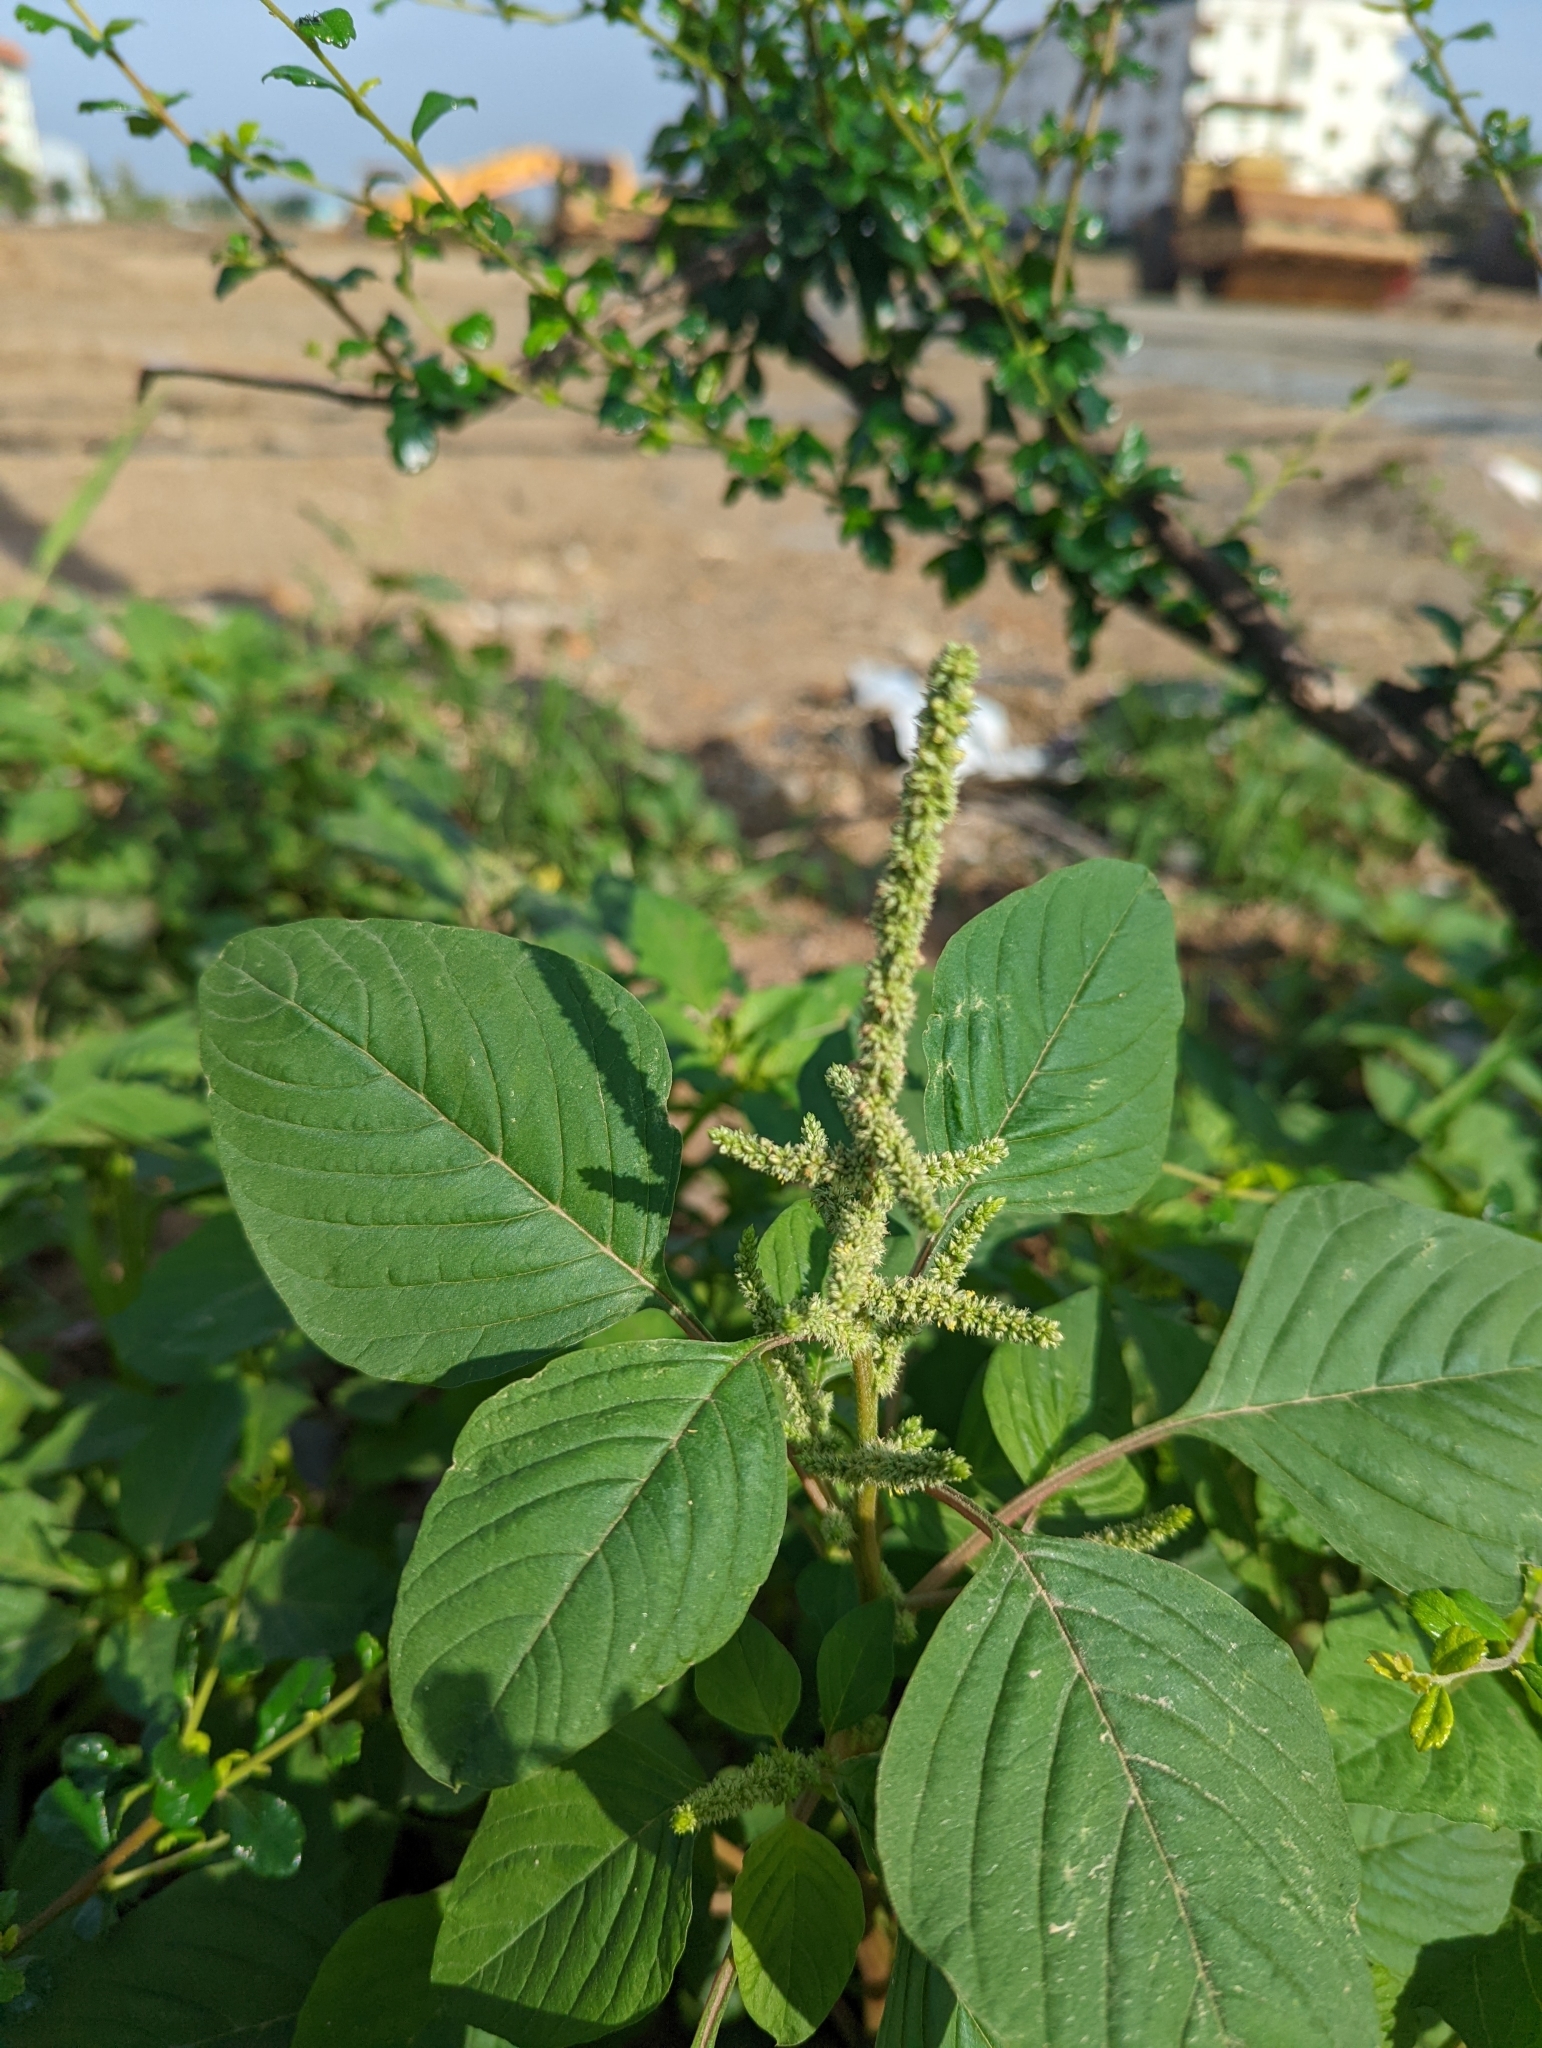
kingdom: Plantae
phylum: Tracheophyta
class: Magnoliopsida
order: Caryophyllales
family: Amaranthaceae
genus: Amaranthus
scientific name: Amaranthus viridis
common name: Slender amaranth
